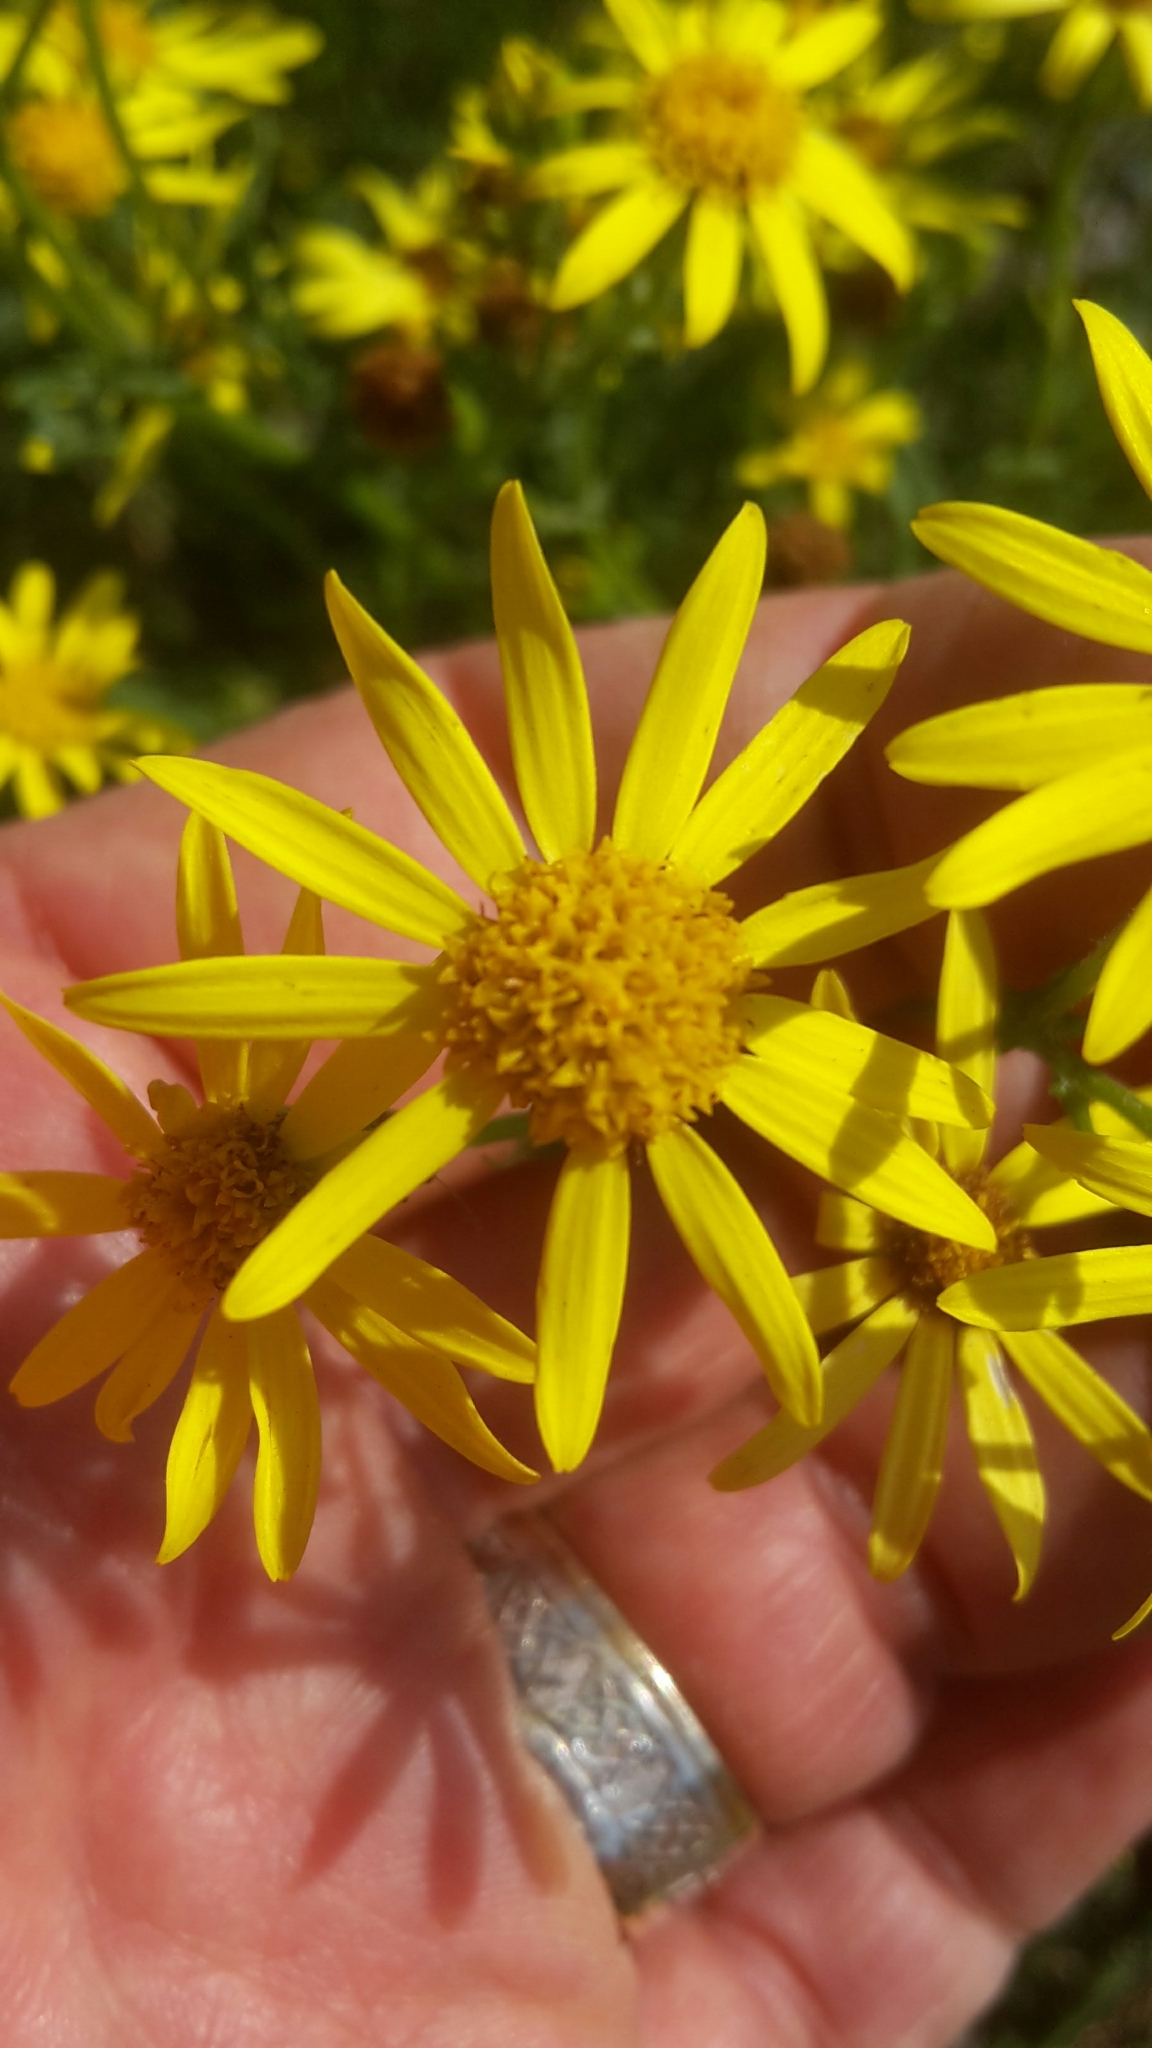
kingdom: Plantae
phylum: Tracheophyta
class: Magnoliopsida
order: Asterales
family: Asteraceae
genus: Jacobaea
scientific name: Jacobaea vulgaris
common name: Stinking willie
